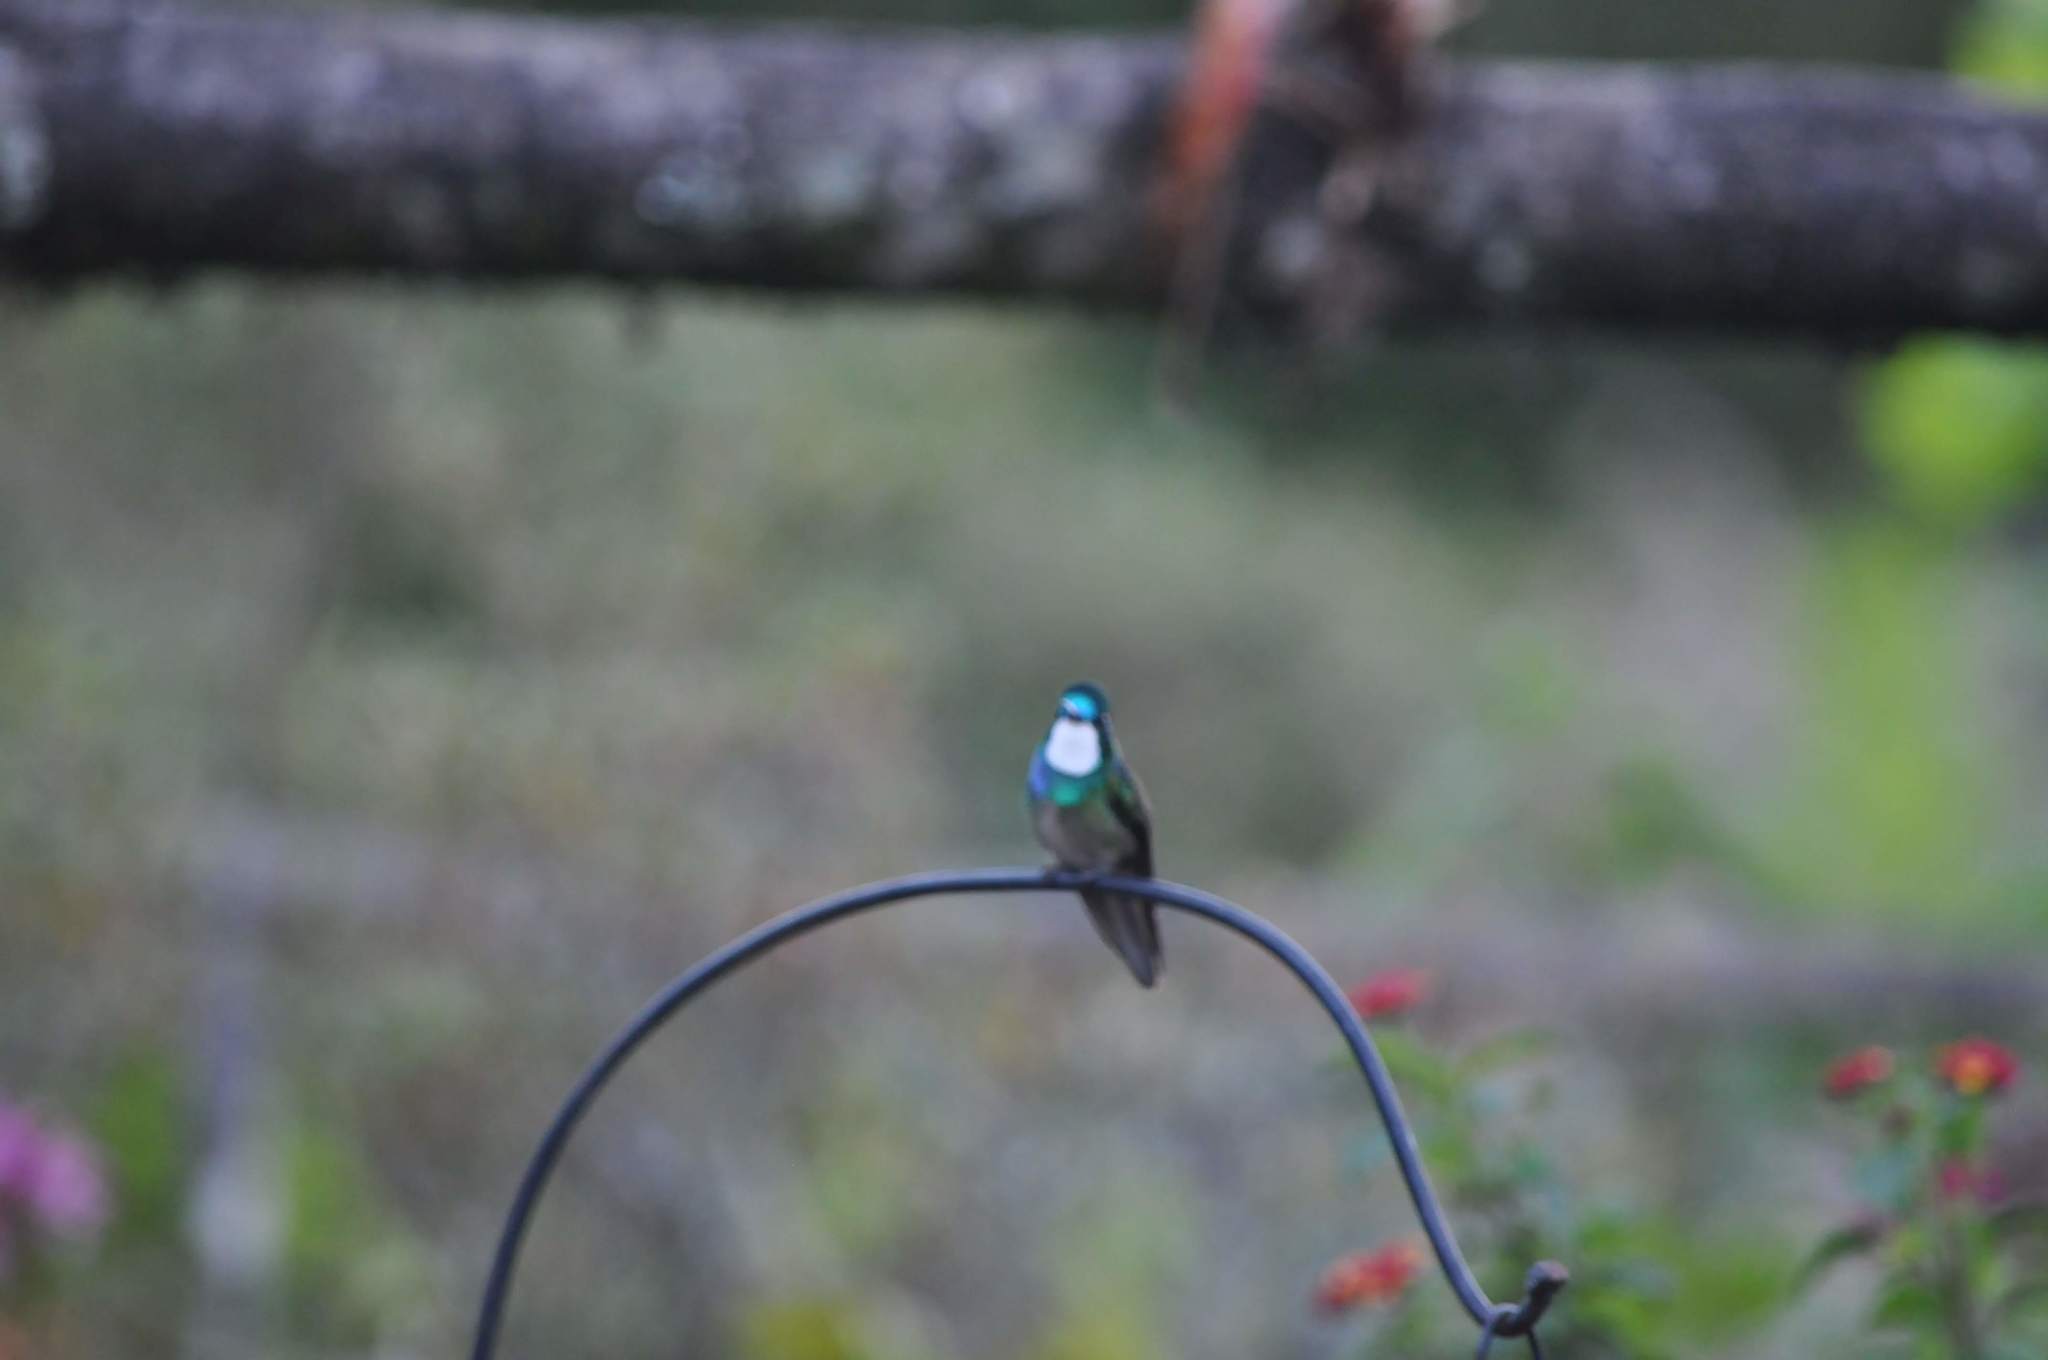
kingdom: Animalia
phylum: Chordata
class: Aves
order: Apodiformes
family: Trochilidae
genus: Lampornis
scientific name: Lampornis castaneoventris
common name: White-throated mountain-gem
